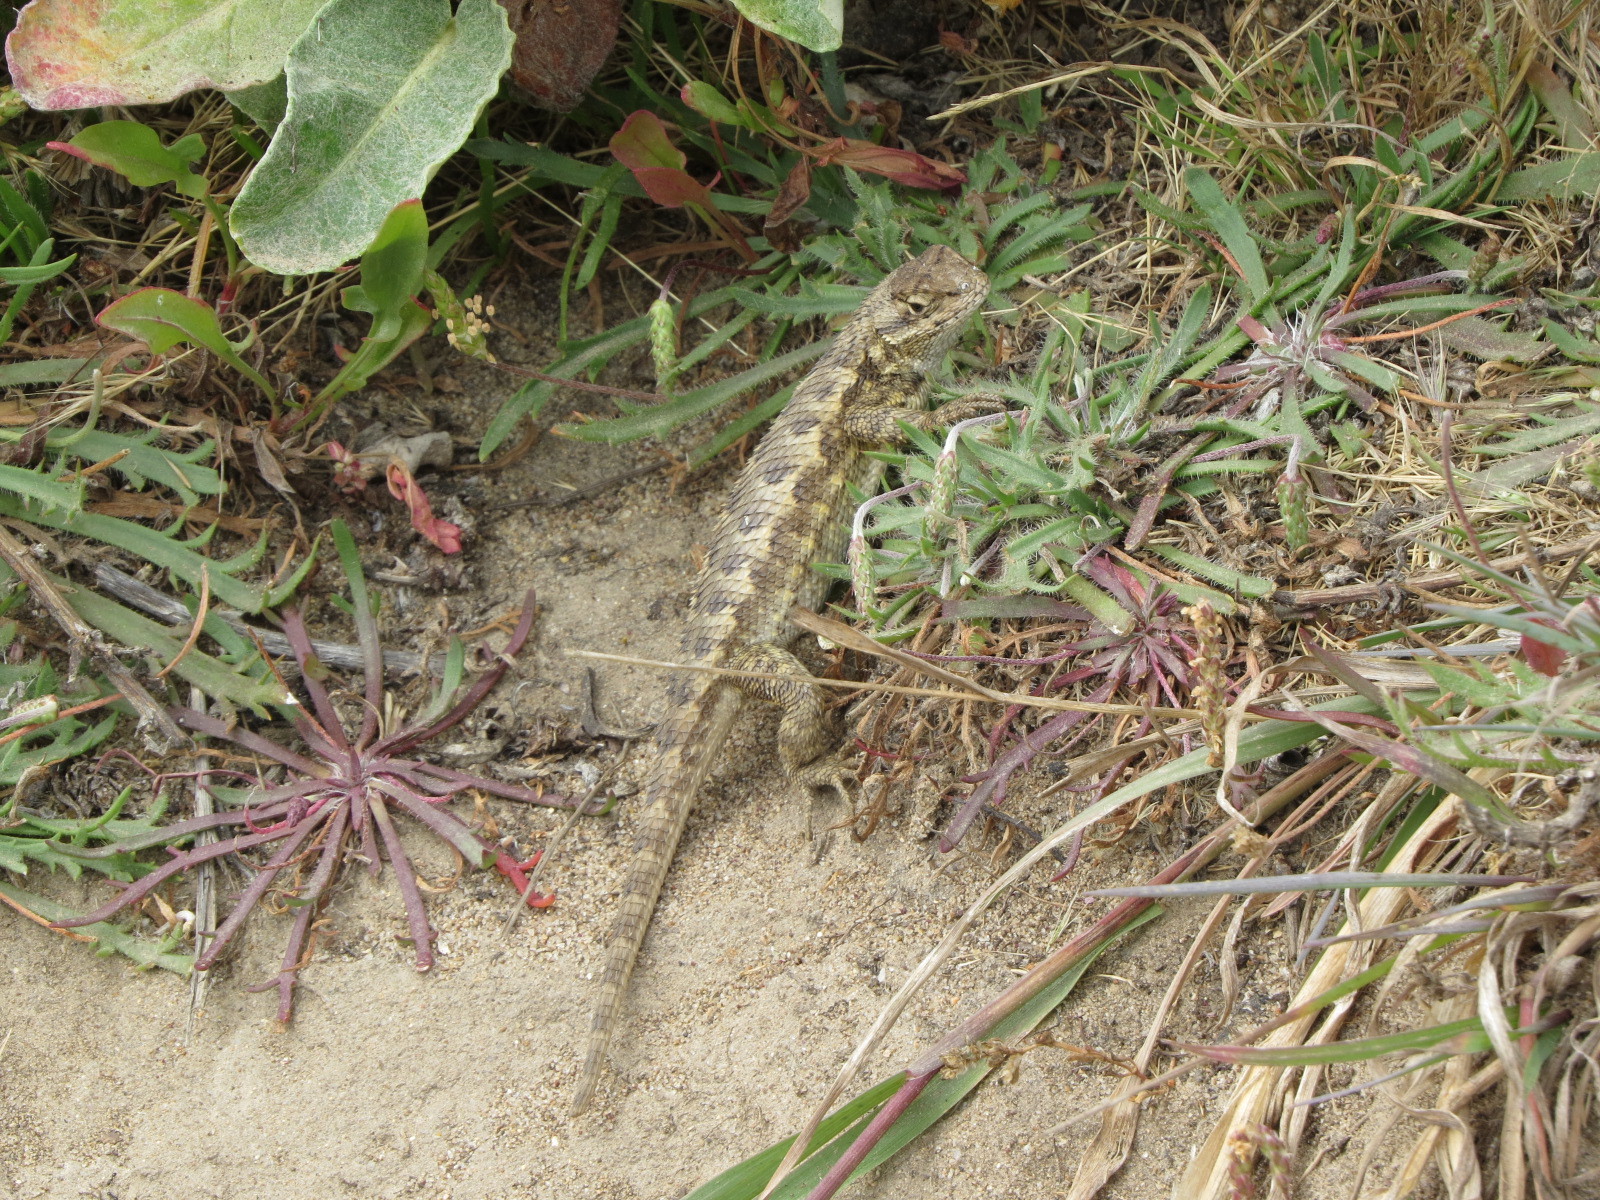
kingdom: Animalia
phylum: Chordata
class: Squamata
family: Phrynosomatidae
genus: Sceloporus
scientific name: Sceloporus occidentalis
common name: Western fence lizard
